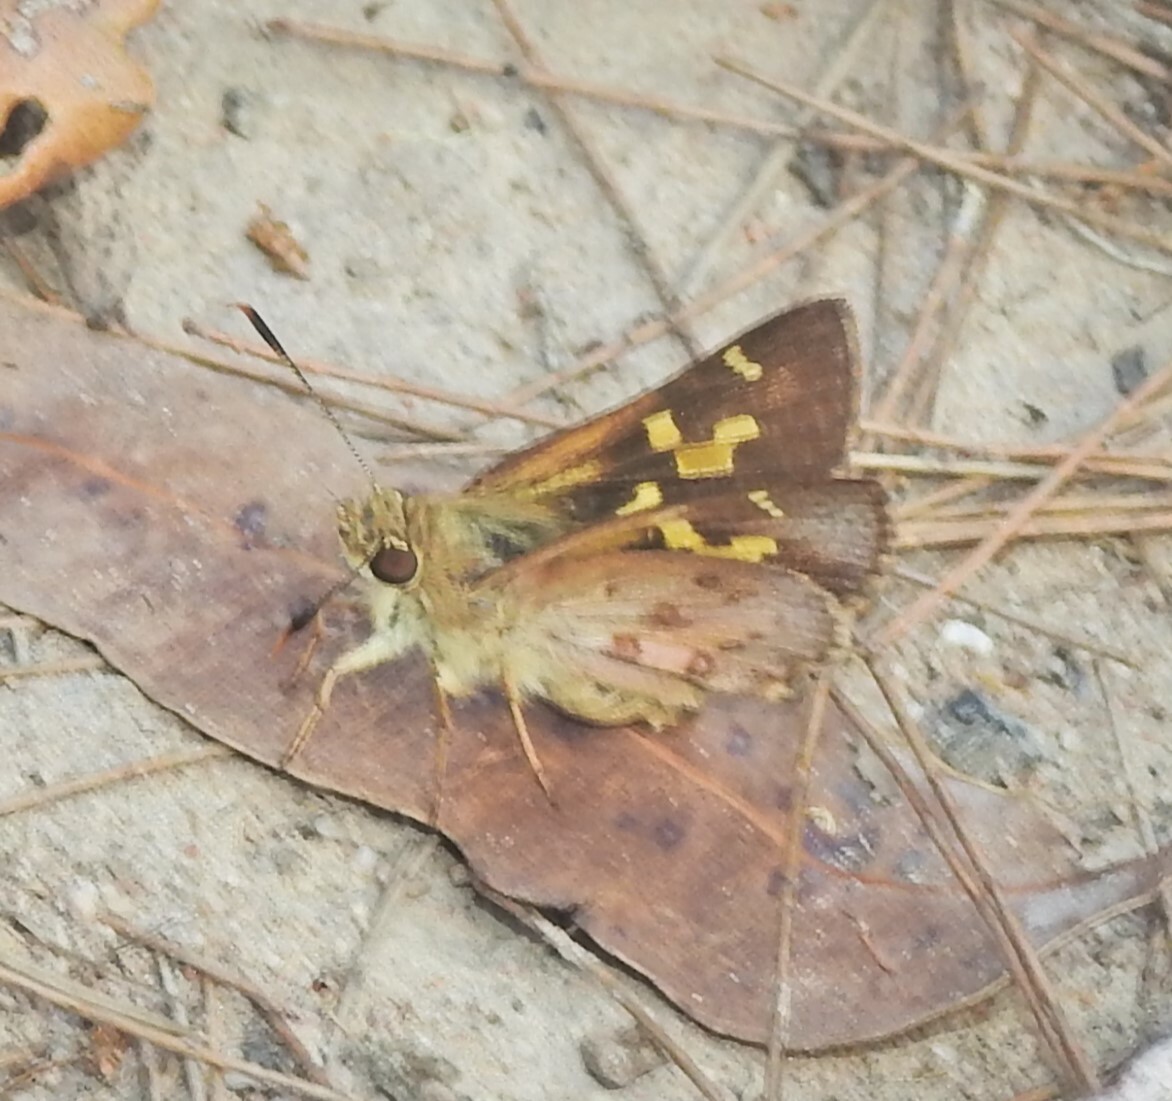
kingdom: Animalia
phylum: Arthropoda
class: Insecta
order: Lepidoptera
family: Hesperiidae
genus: Trapezites
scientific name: Trapezites maheta
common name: Northern silver ochre
